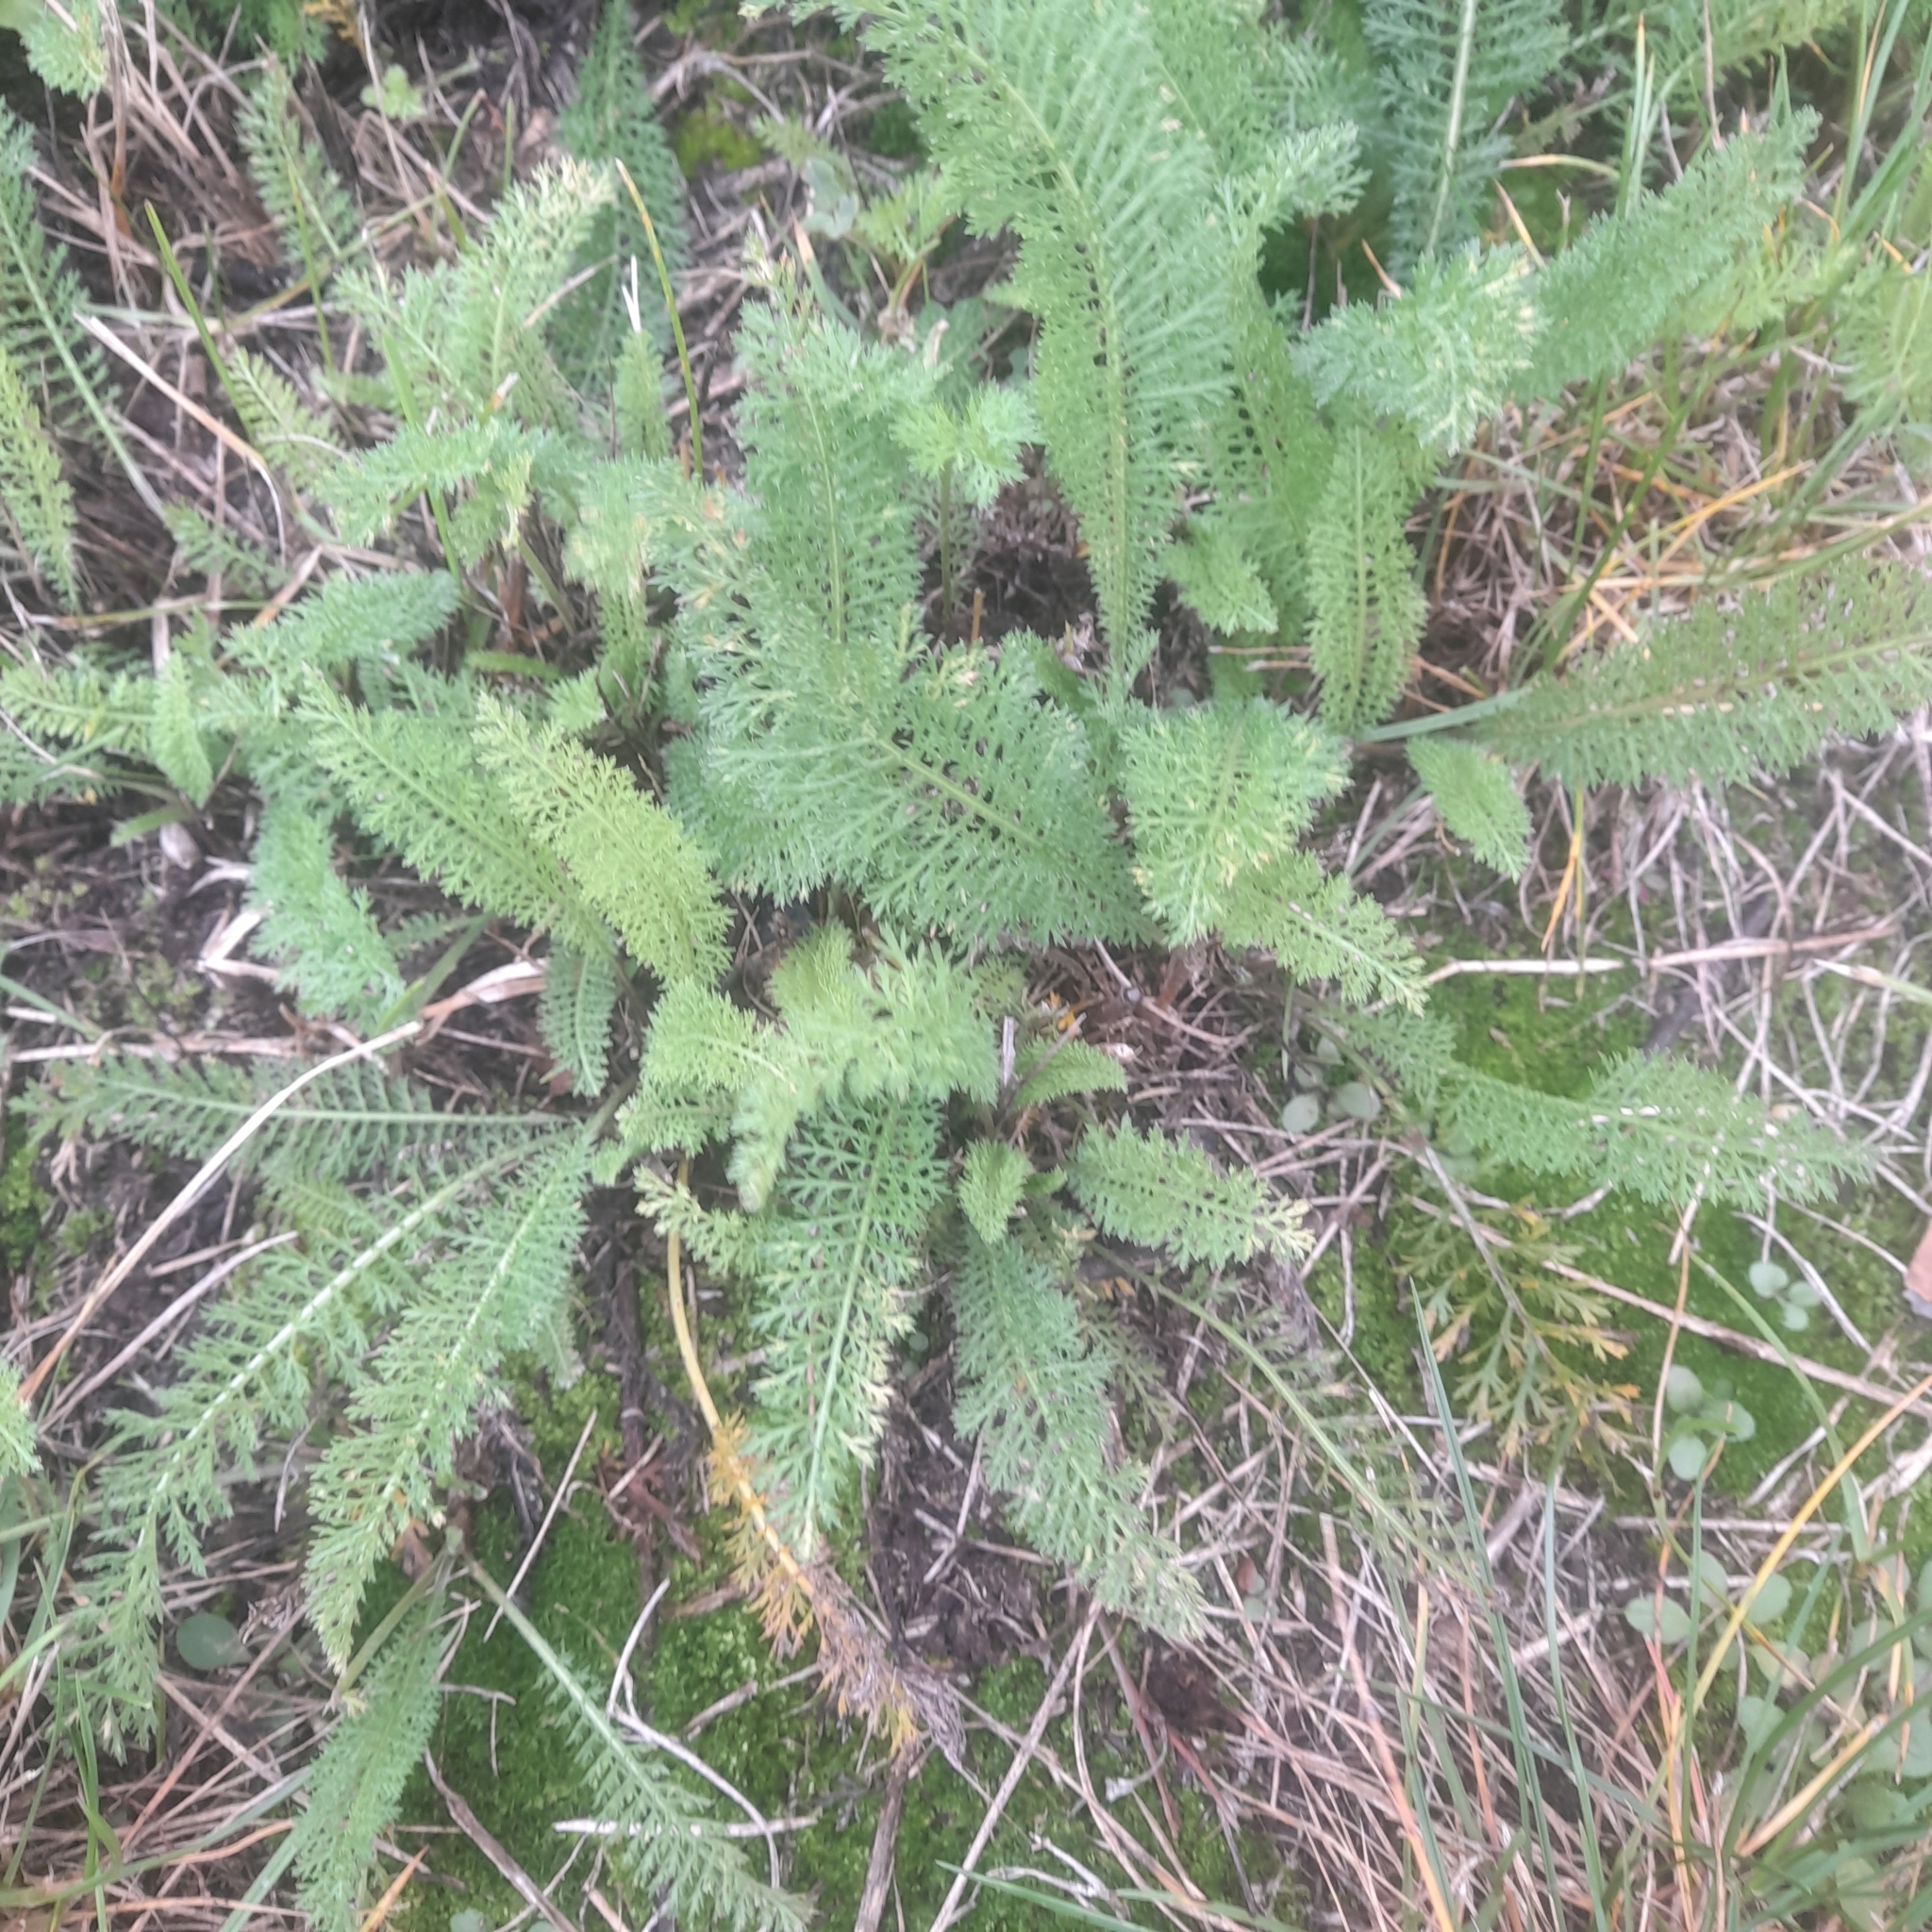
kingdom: Plantae
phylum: Tracheophyta
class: Magnoliopsida
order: Asterales
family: Asteraceae
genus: Achillea
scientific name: Achillea millefolium
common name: Yarrow
